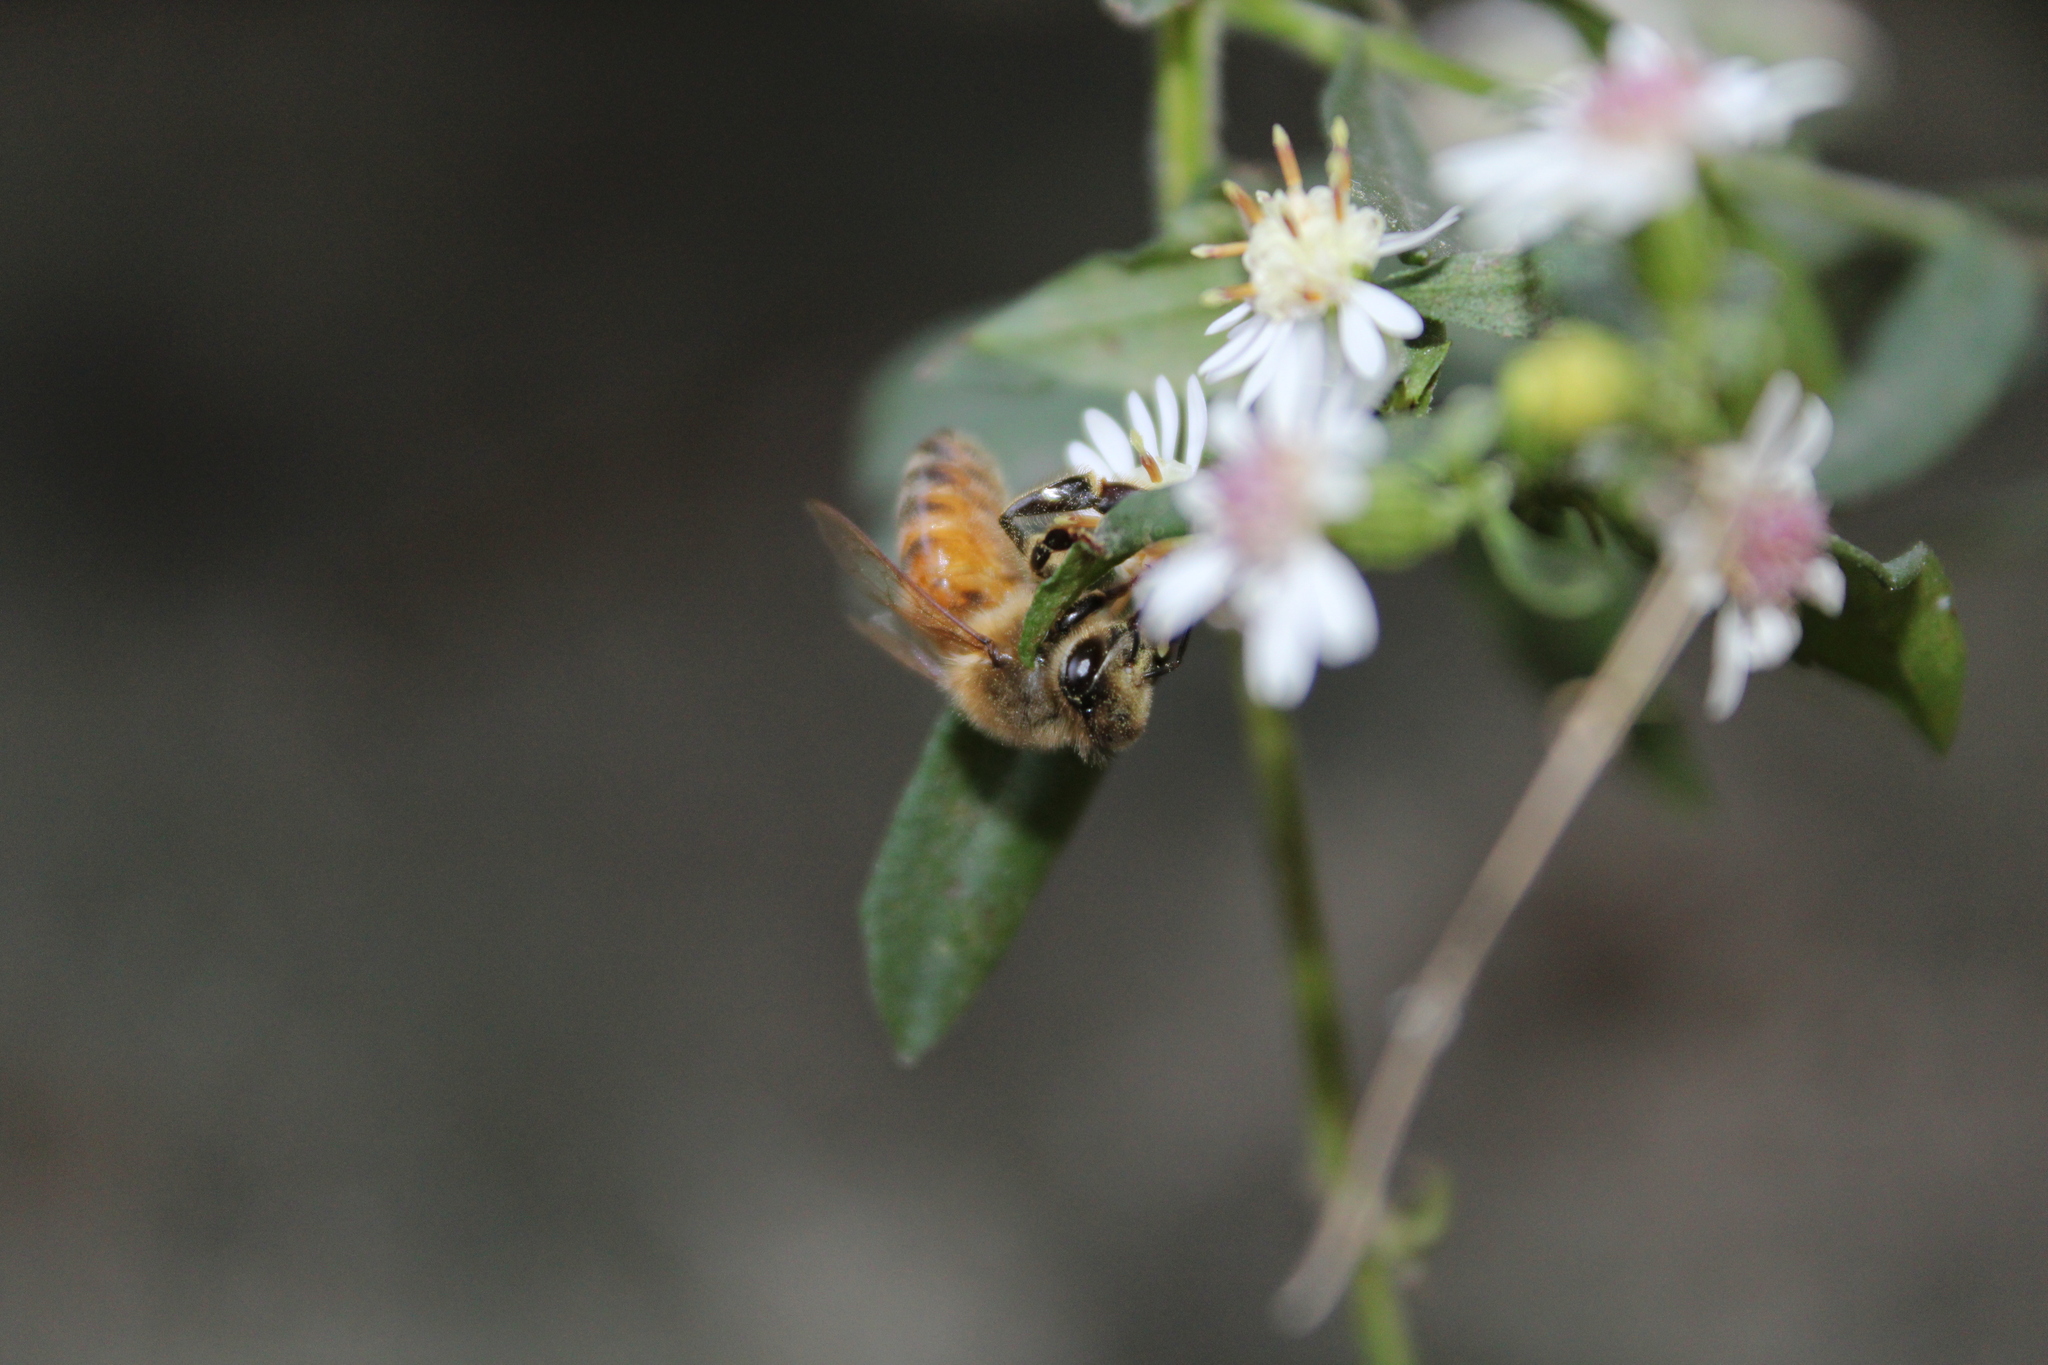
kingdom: Animalia
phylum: Arthropoda
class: Insecta
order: Hymenoptera
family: Apidae
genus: Apis
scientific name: Apis mellifera
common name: Honey bee
